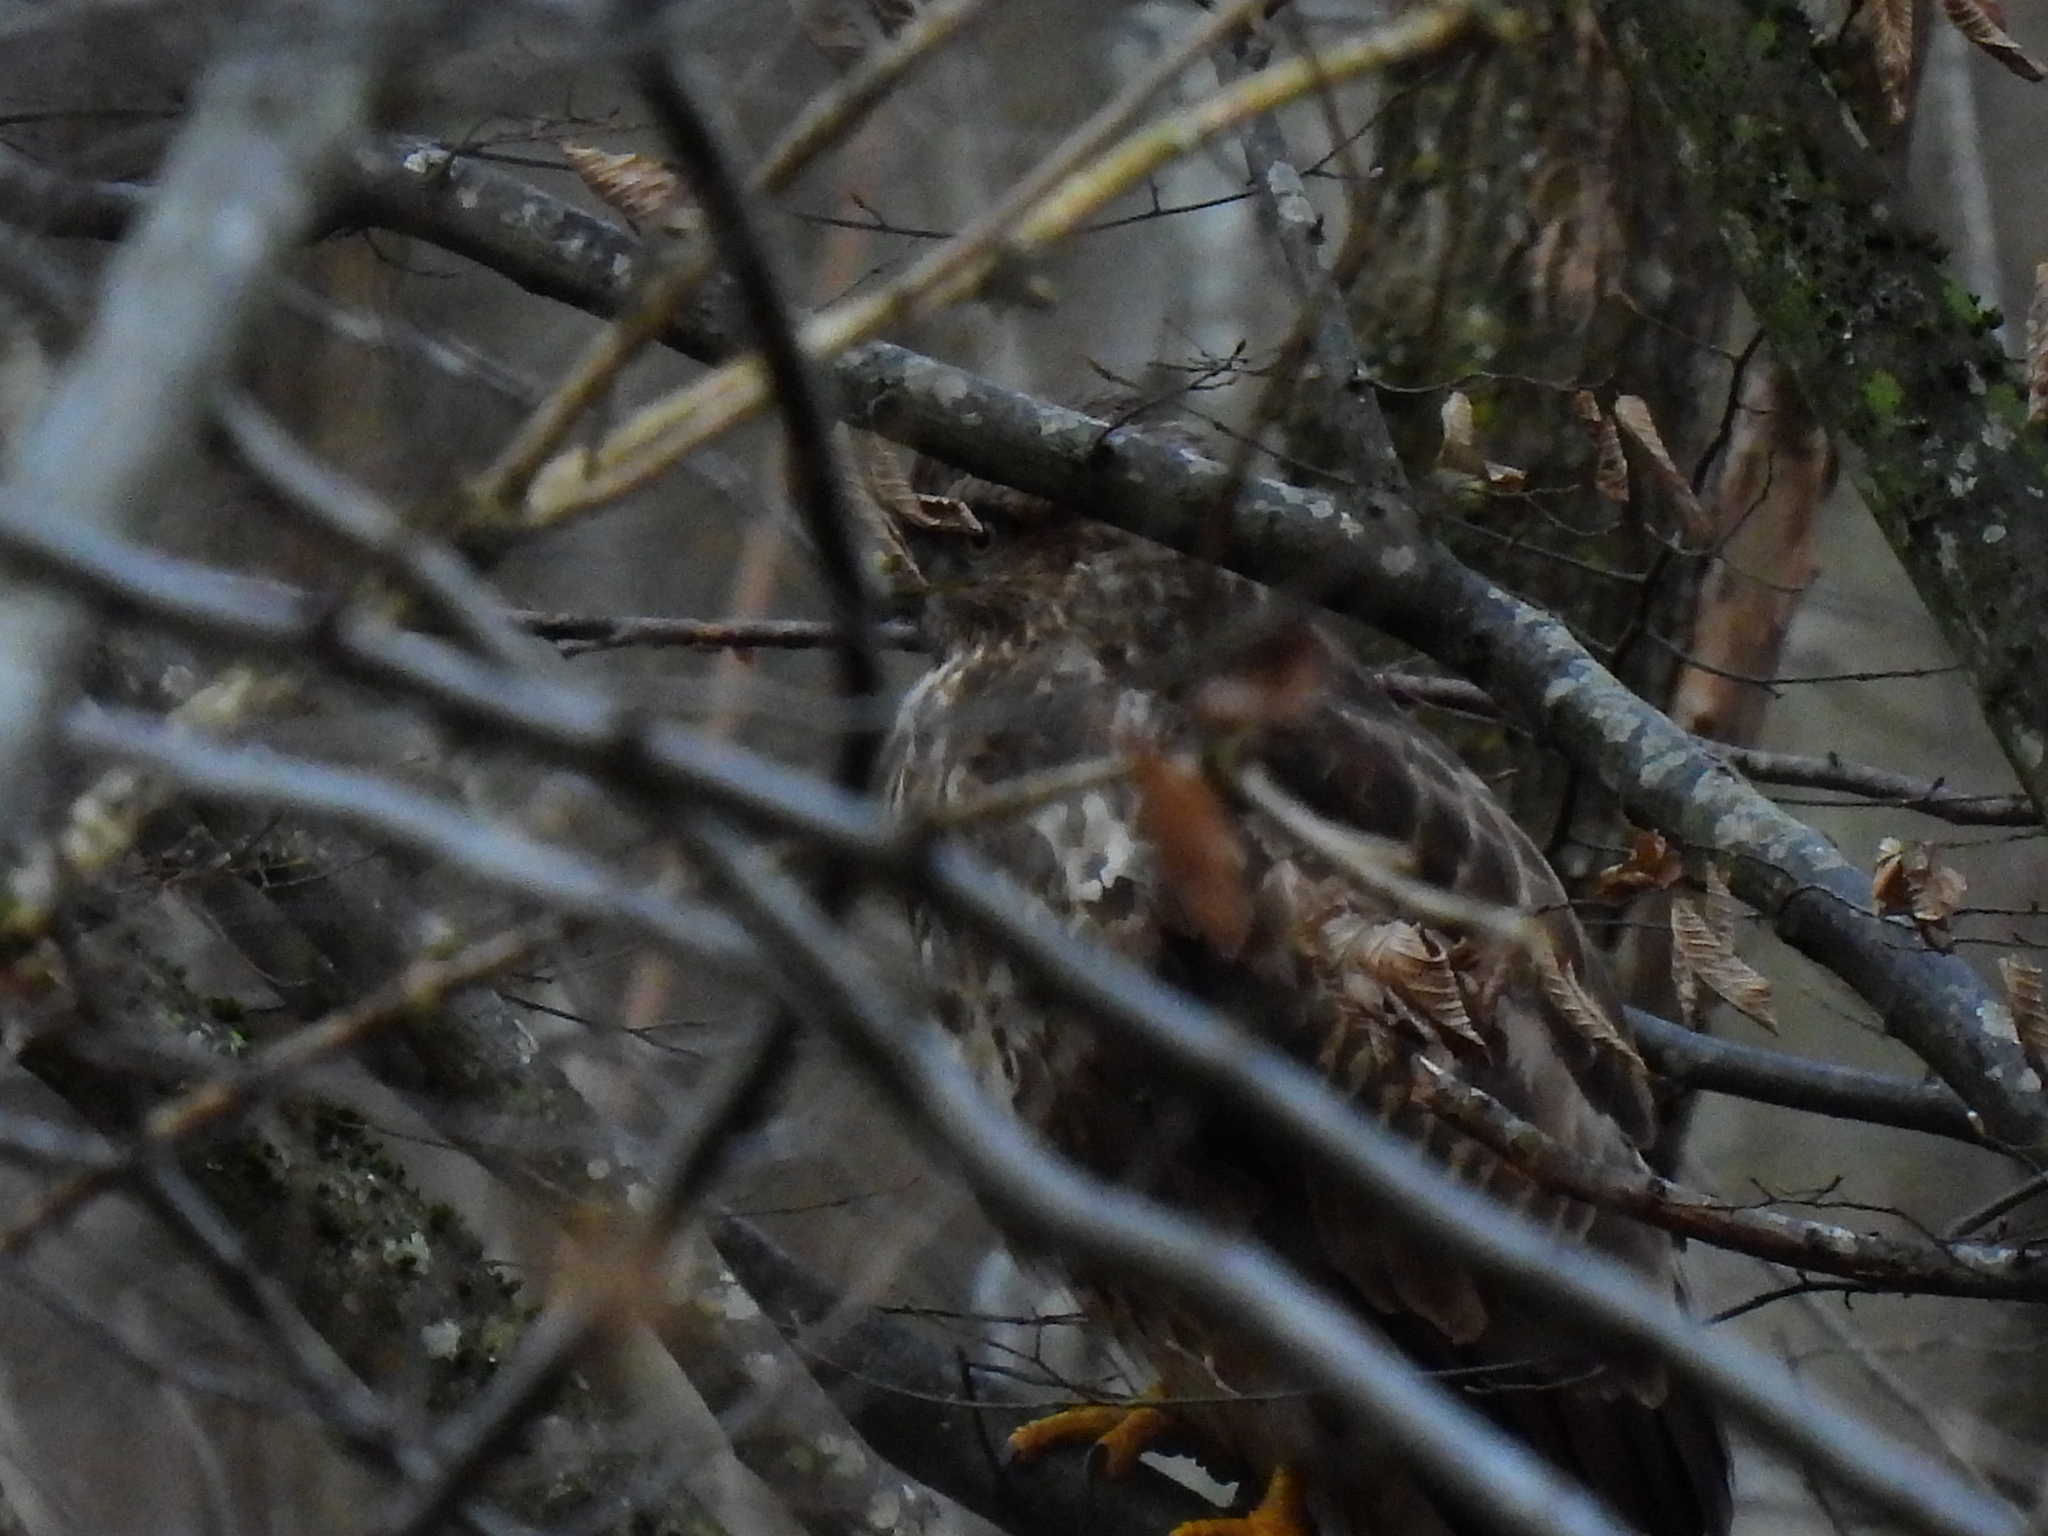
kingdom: Animalia
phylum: Chordata
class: Aves
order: Accipitriformes
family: Accipitridae
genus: Buteo
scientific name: Buteo buteo
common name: Common buzzard
